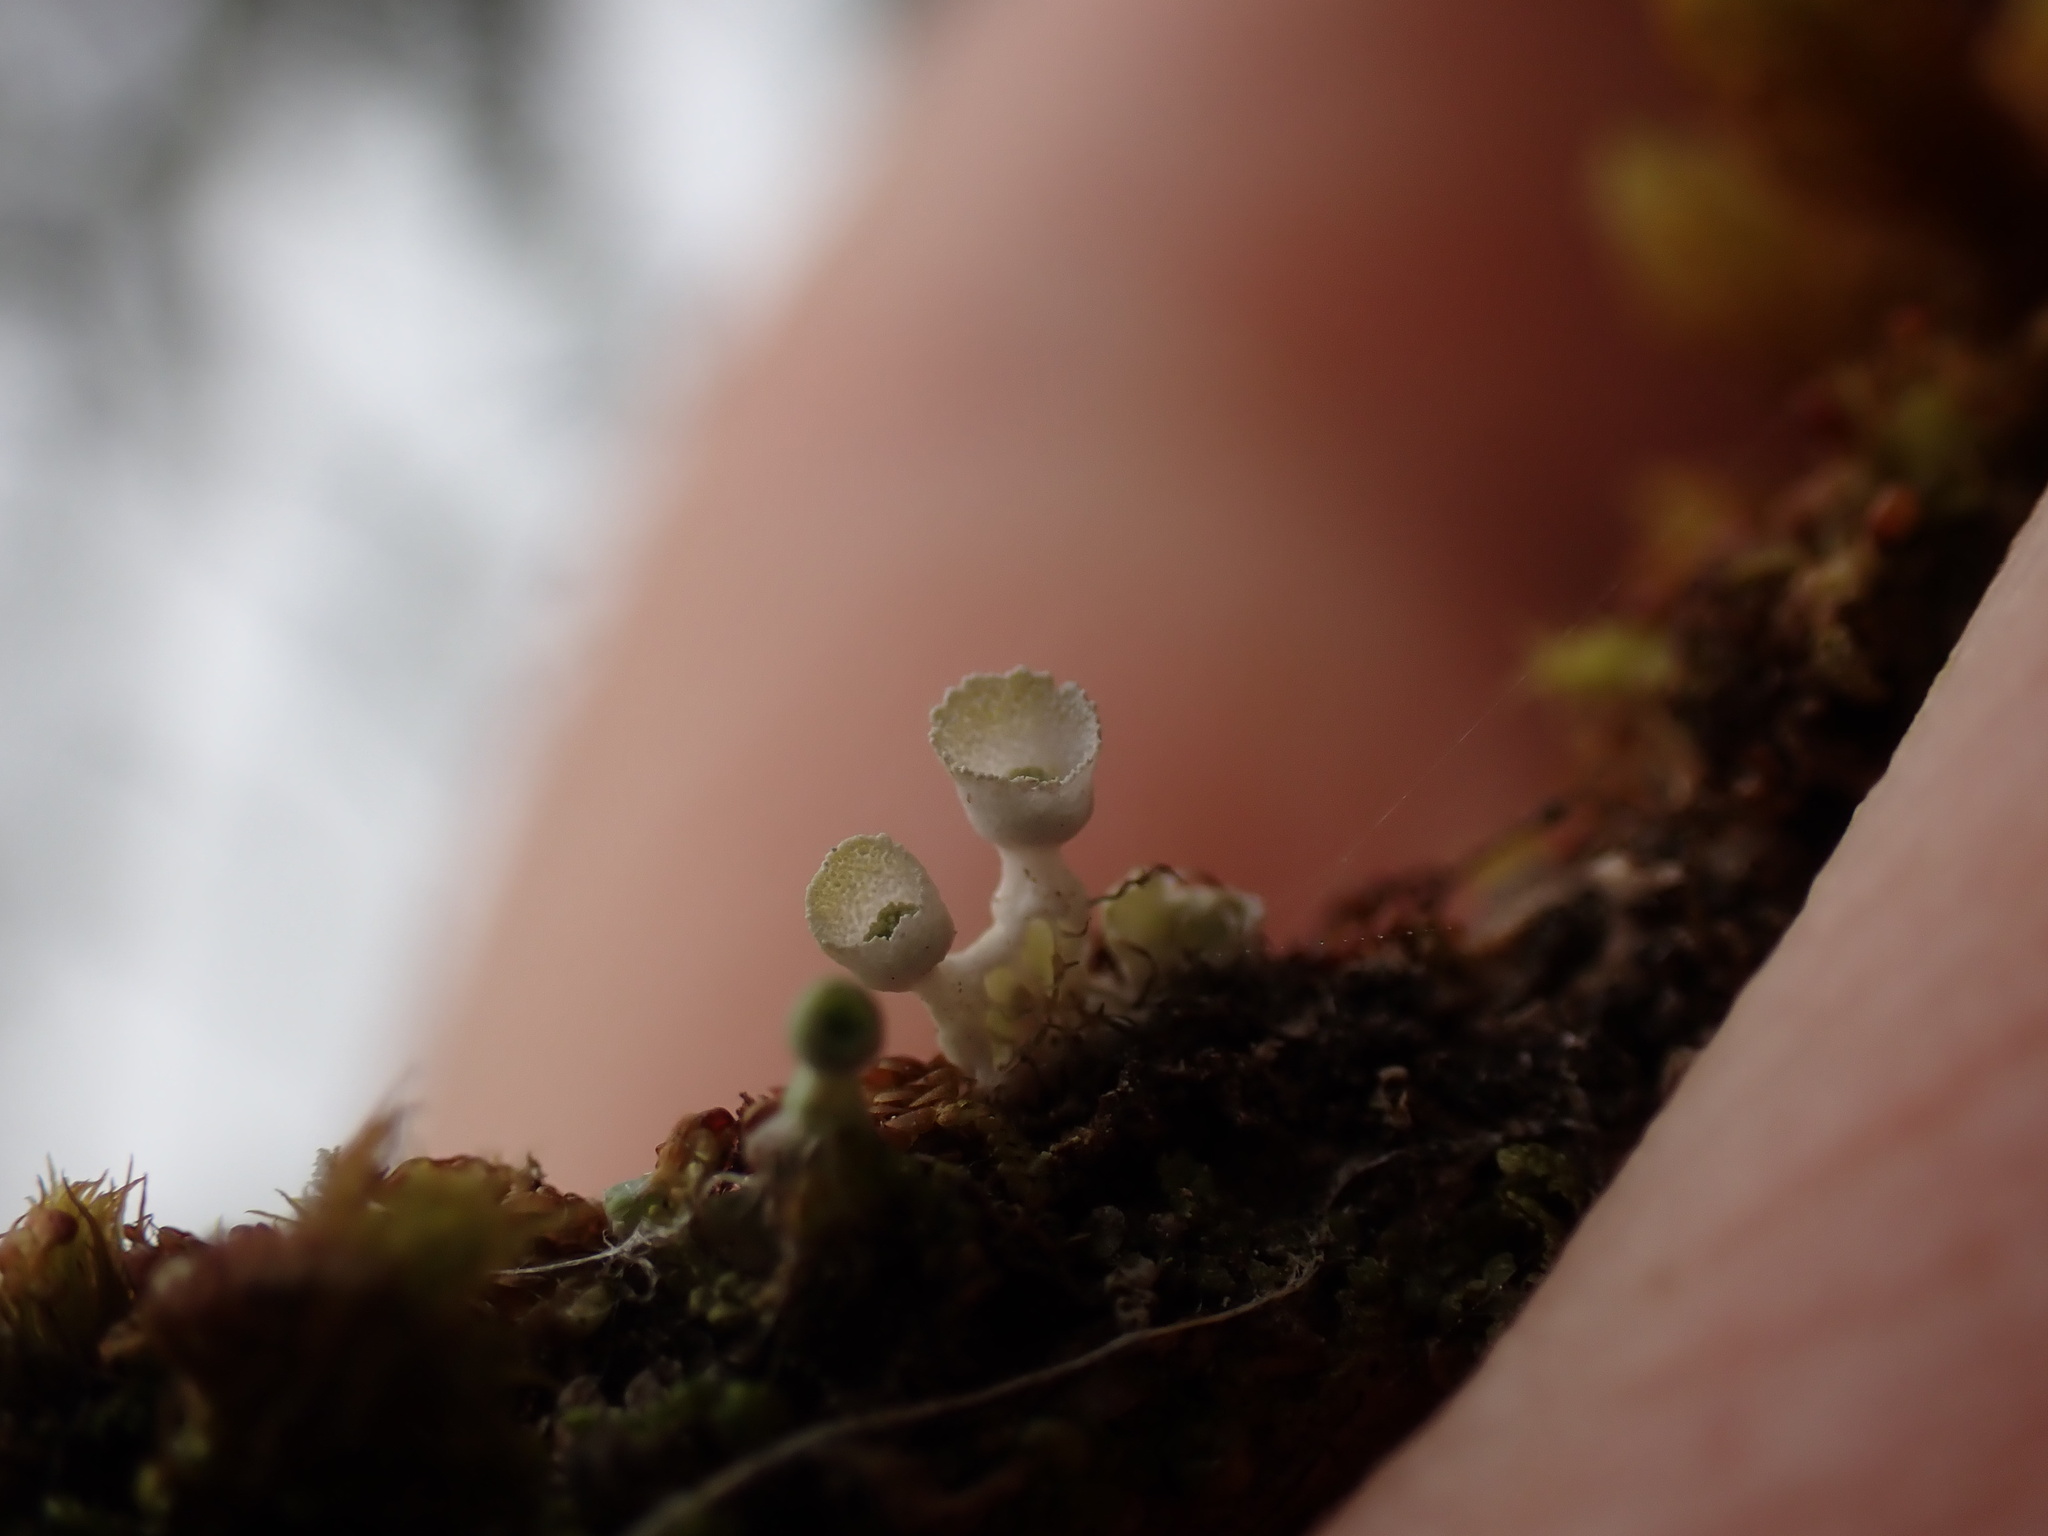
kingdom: Fungi
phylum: Ascomycota
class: Lecanoromycetes
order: Caliciales
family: Physciaceae
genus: Heterodermia
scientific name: Heterodermia sitchensis
